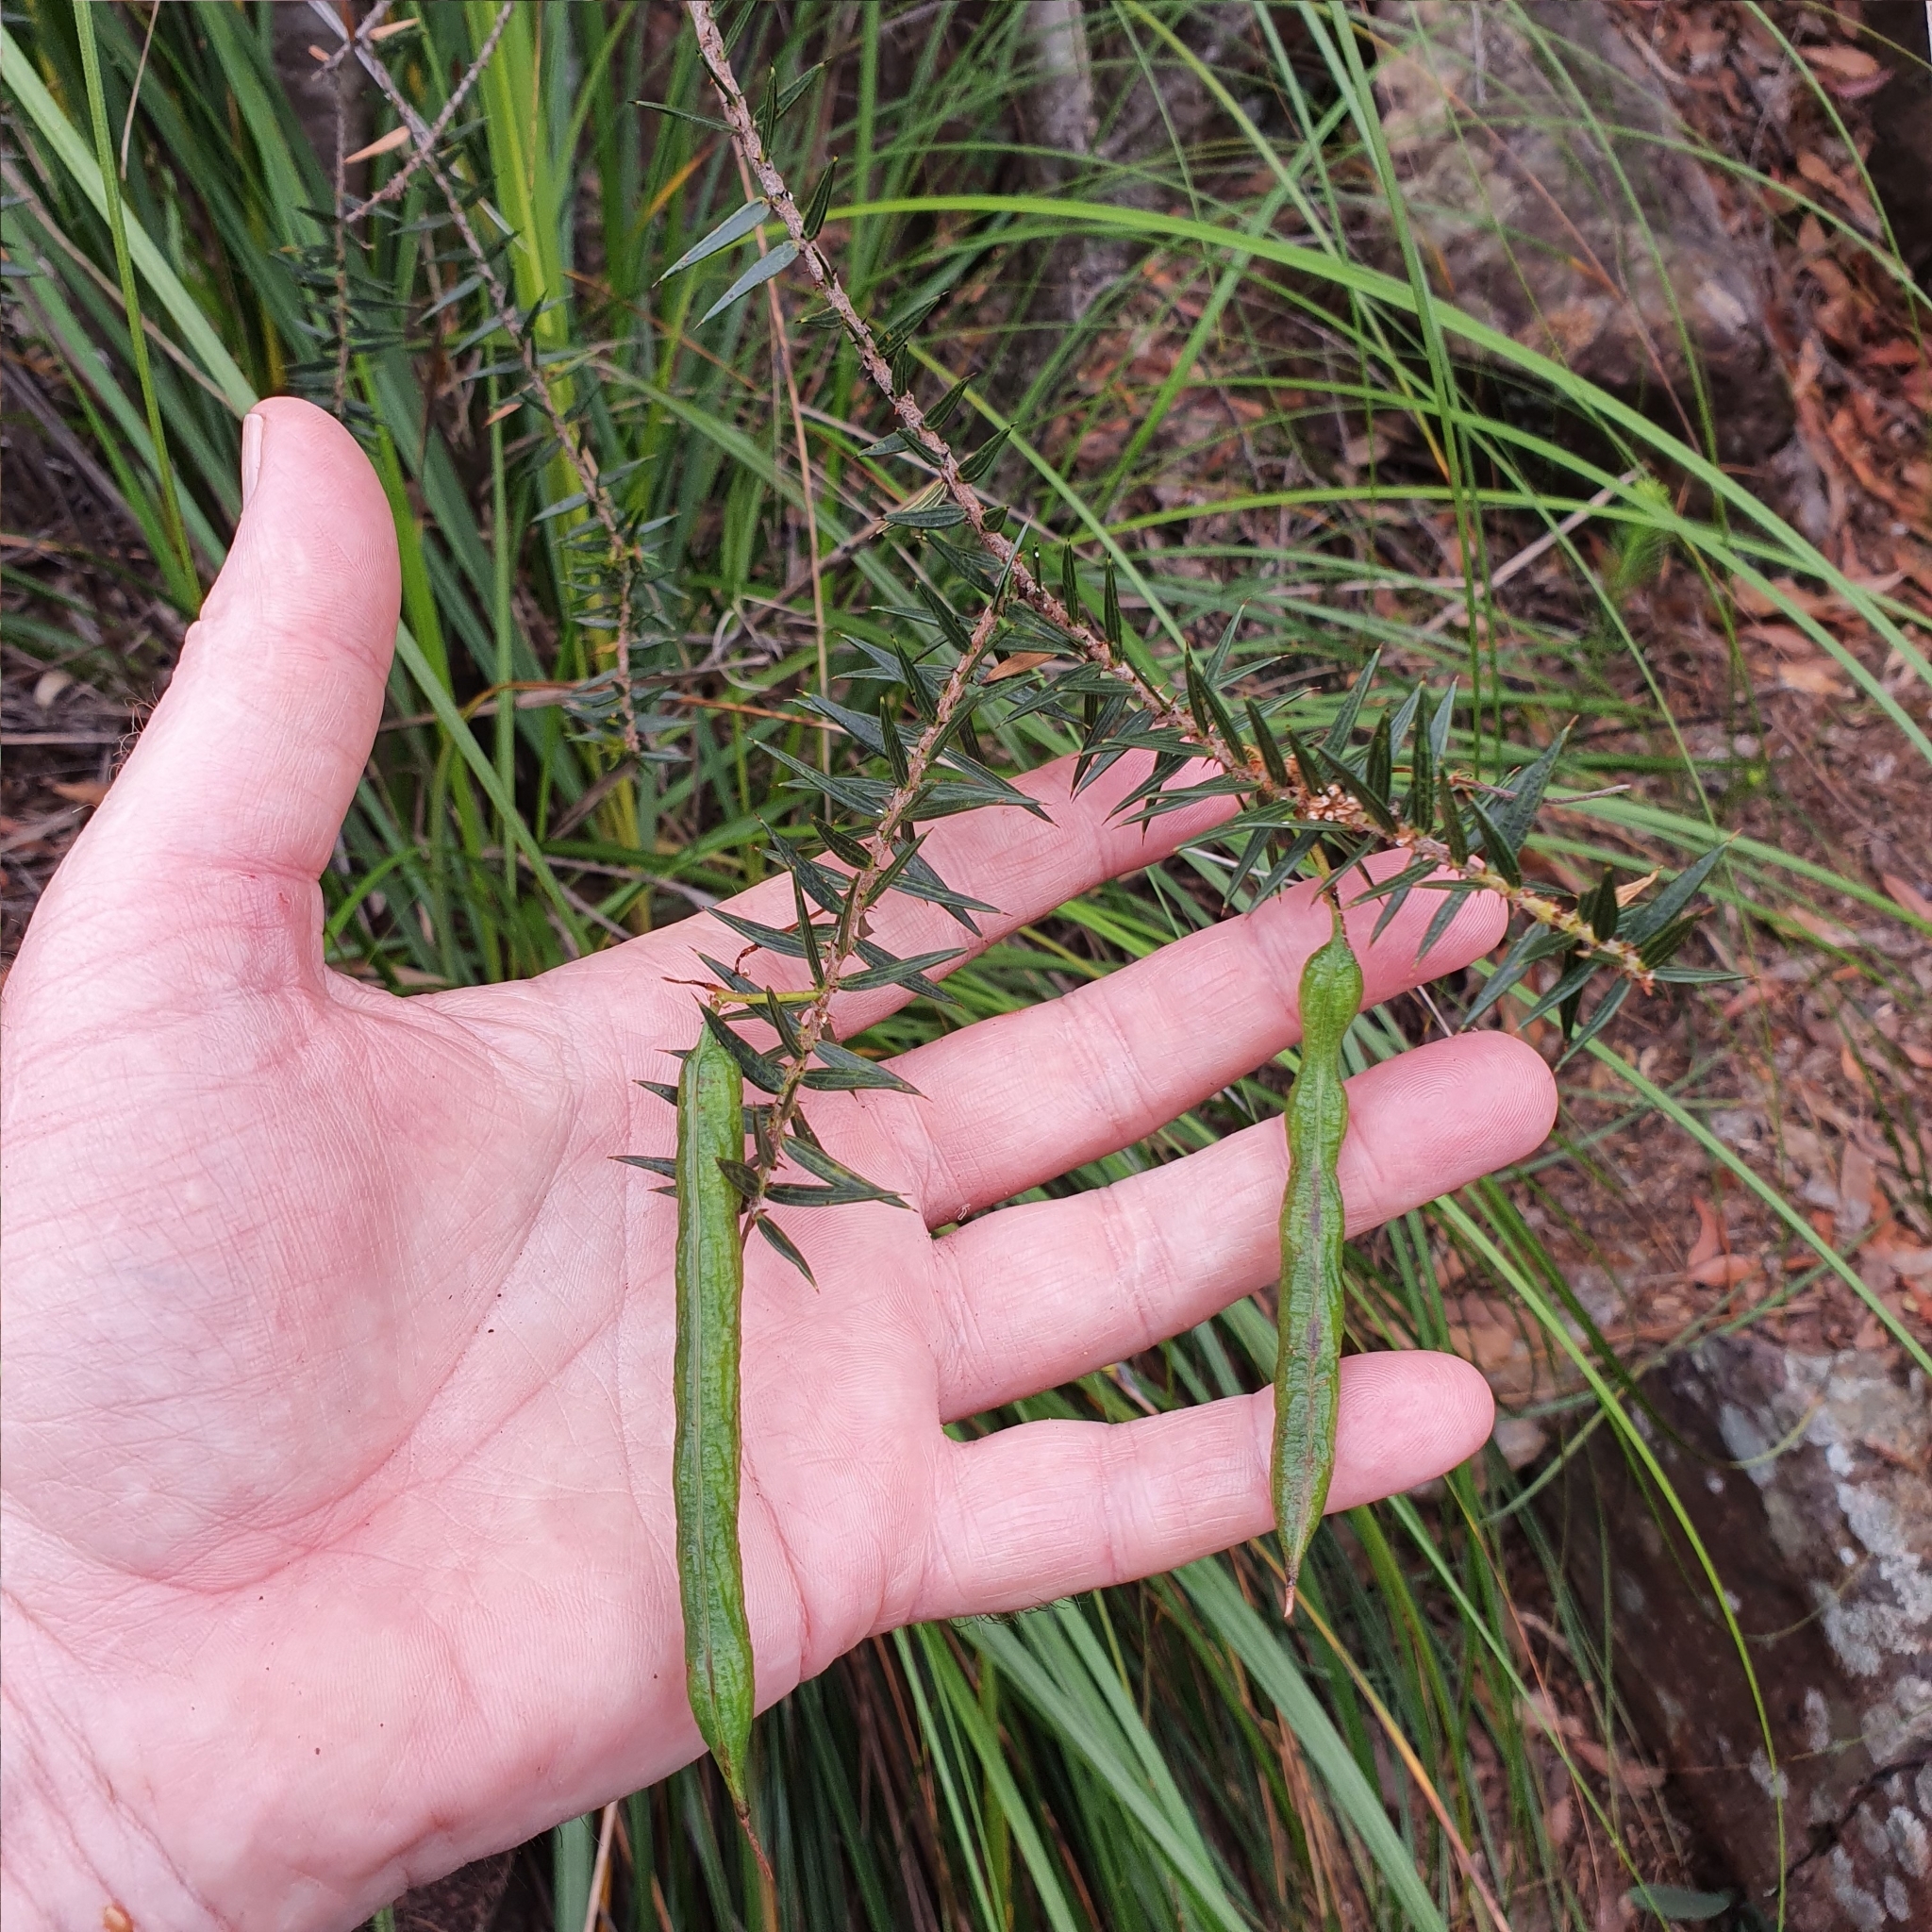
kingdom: Plantae
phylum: Tracheophyta
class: Magnoliopsida
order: Fabales
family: Fabaceae
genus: Acacia
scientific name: Acacia oxycedrus
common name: Spike wattle
